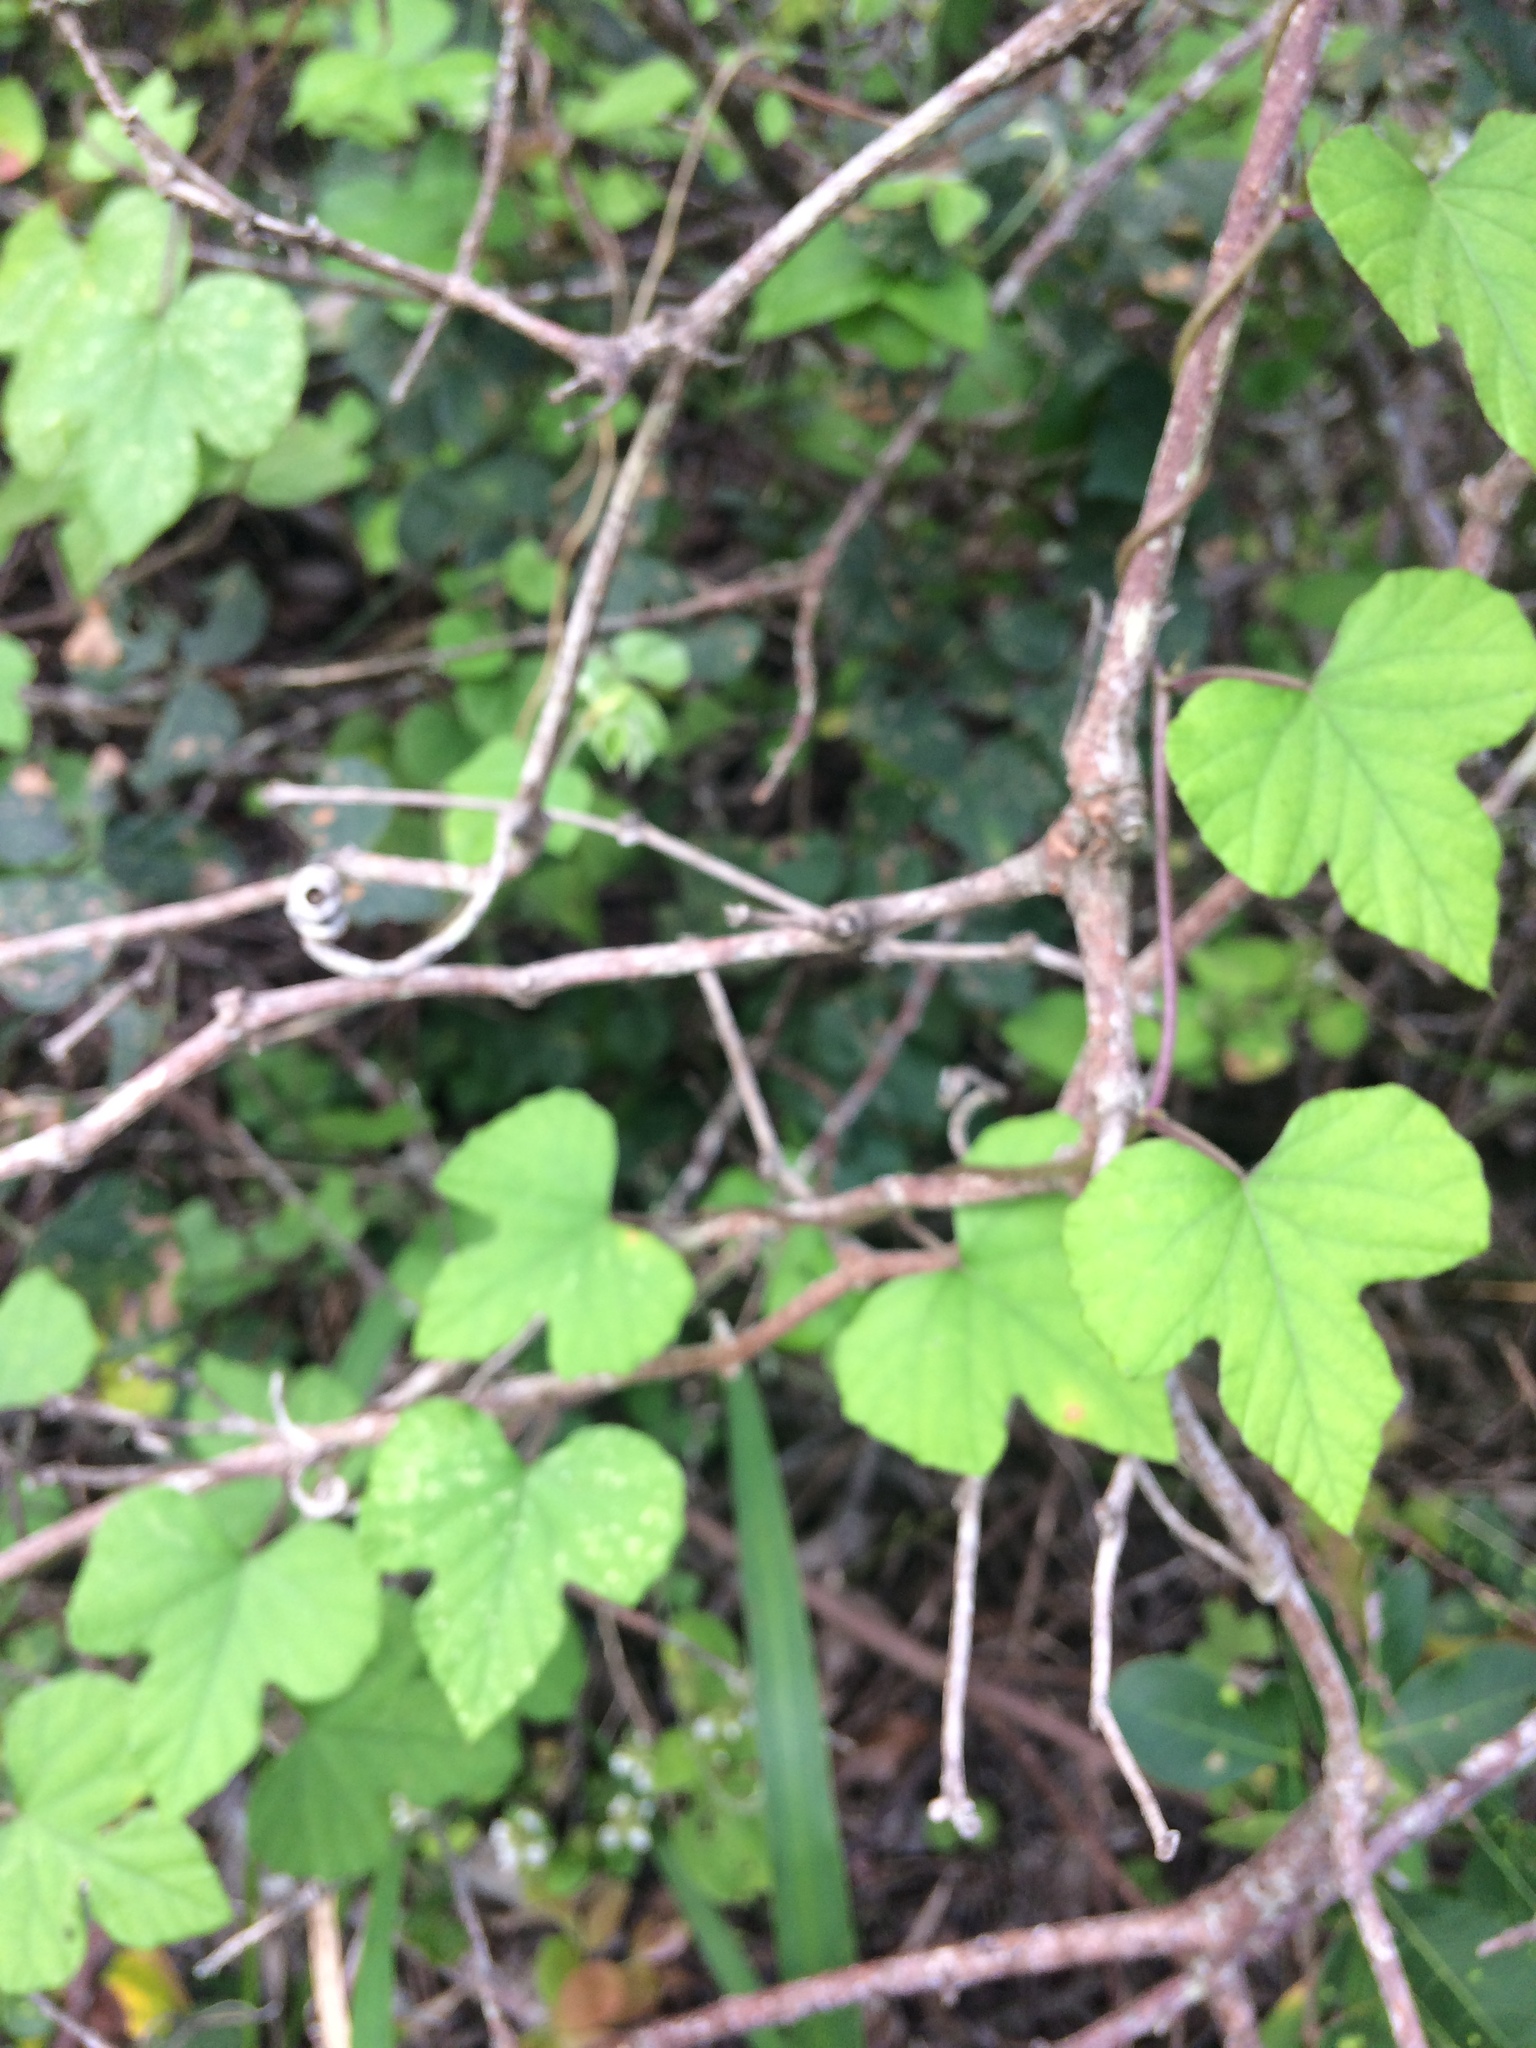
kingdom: Plantae
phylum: Tracheophyta
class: Magnoliopsida
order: Solanales
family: Convolvulaceae
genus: Ipomoea
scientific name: Ipomoea ficifolia
